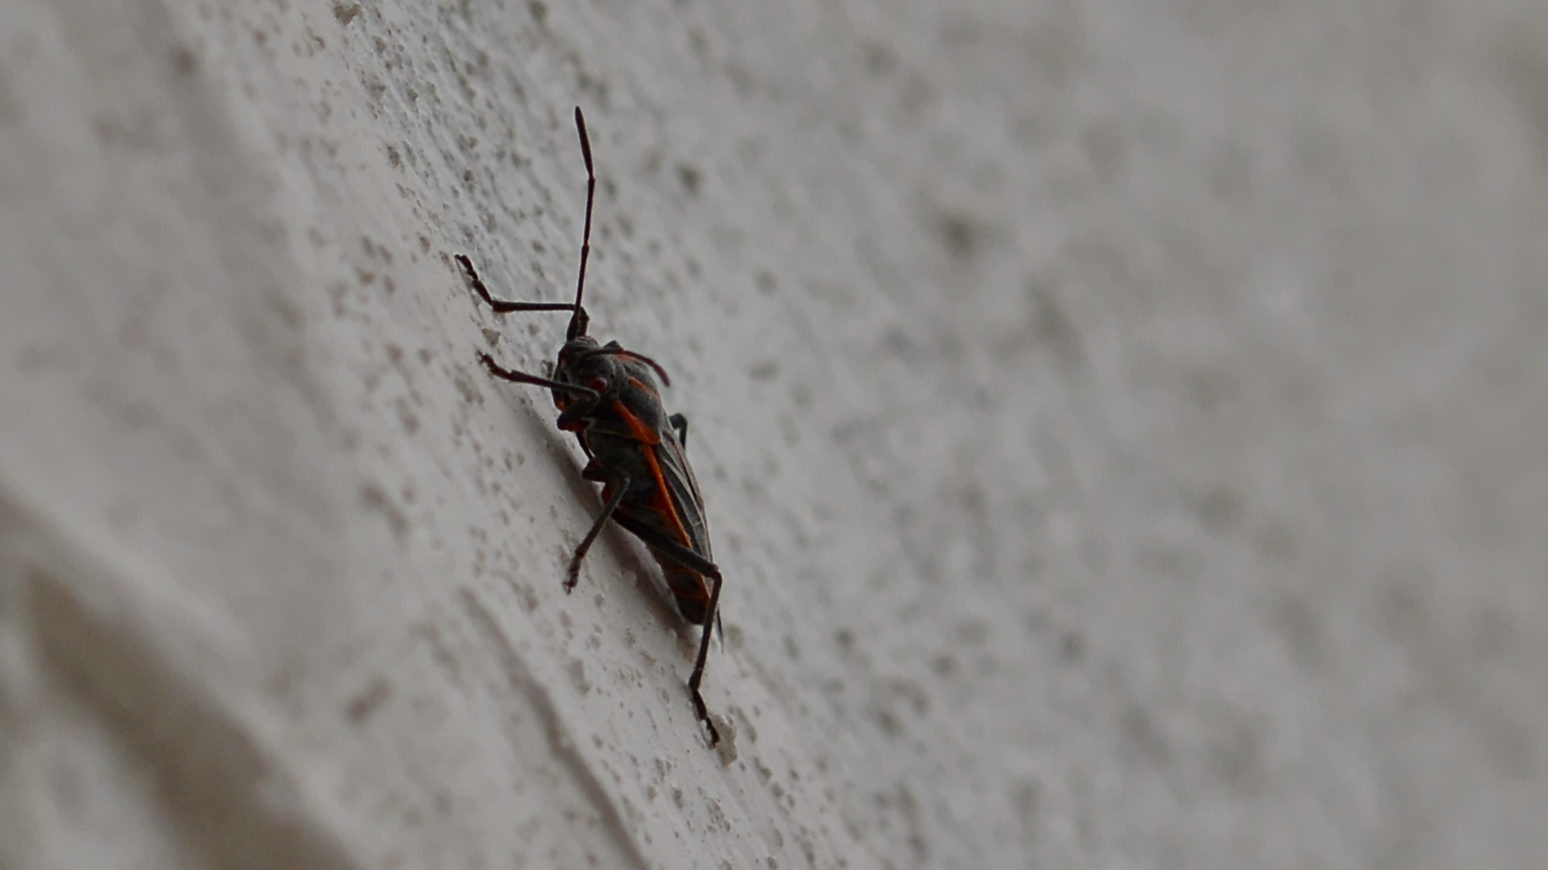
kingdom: Animalia
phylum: Arthropoda
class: Insecta
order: Hemiptera
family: Rhopalidae
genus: Boisea
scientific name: Boisea trivittata
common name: Boxelder bug
